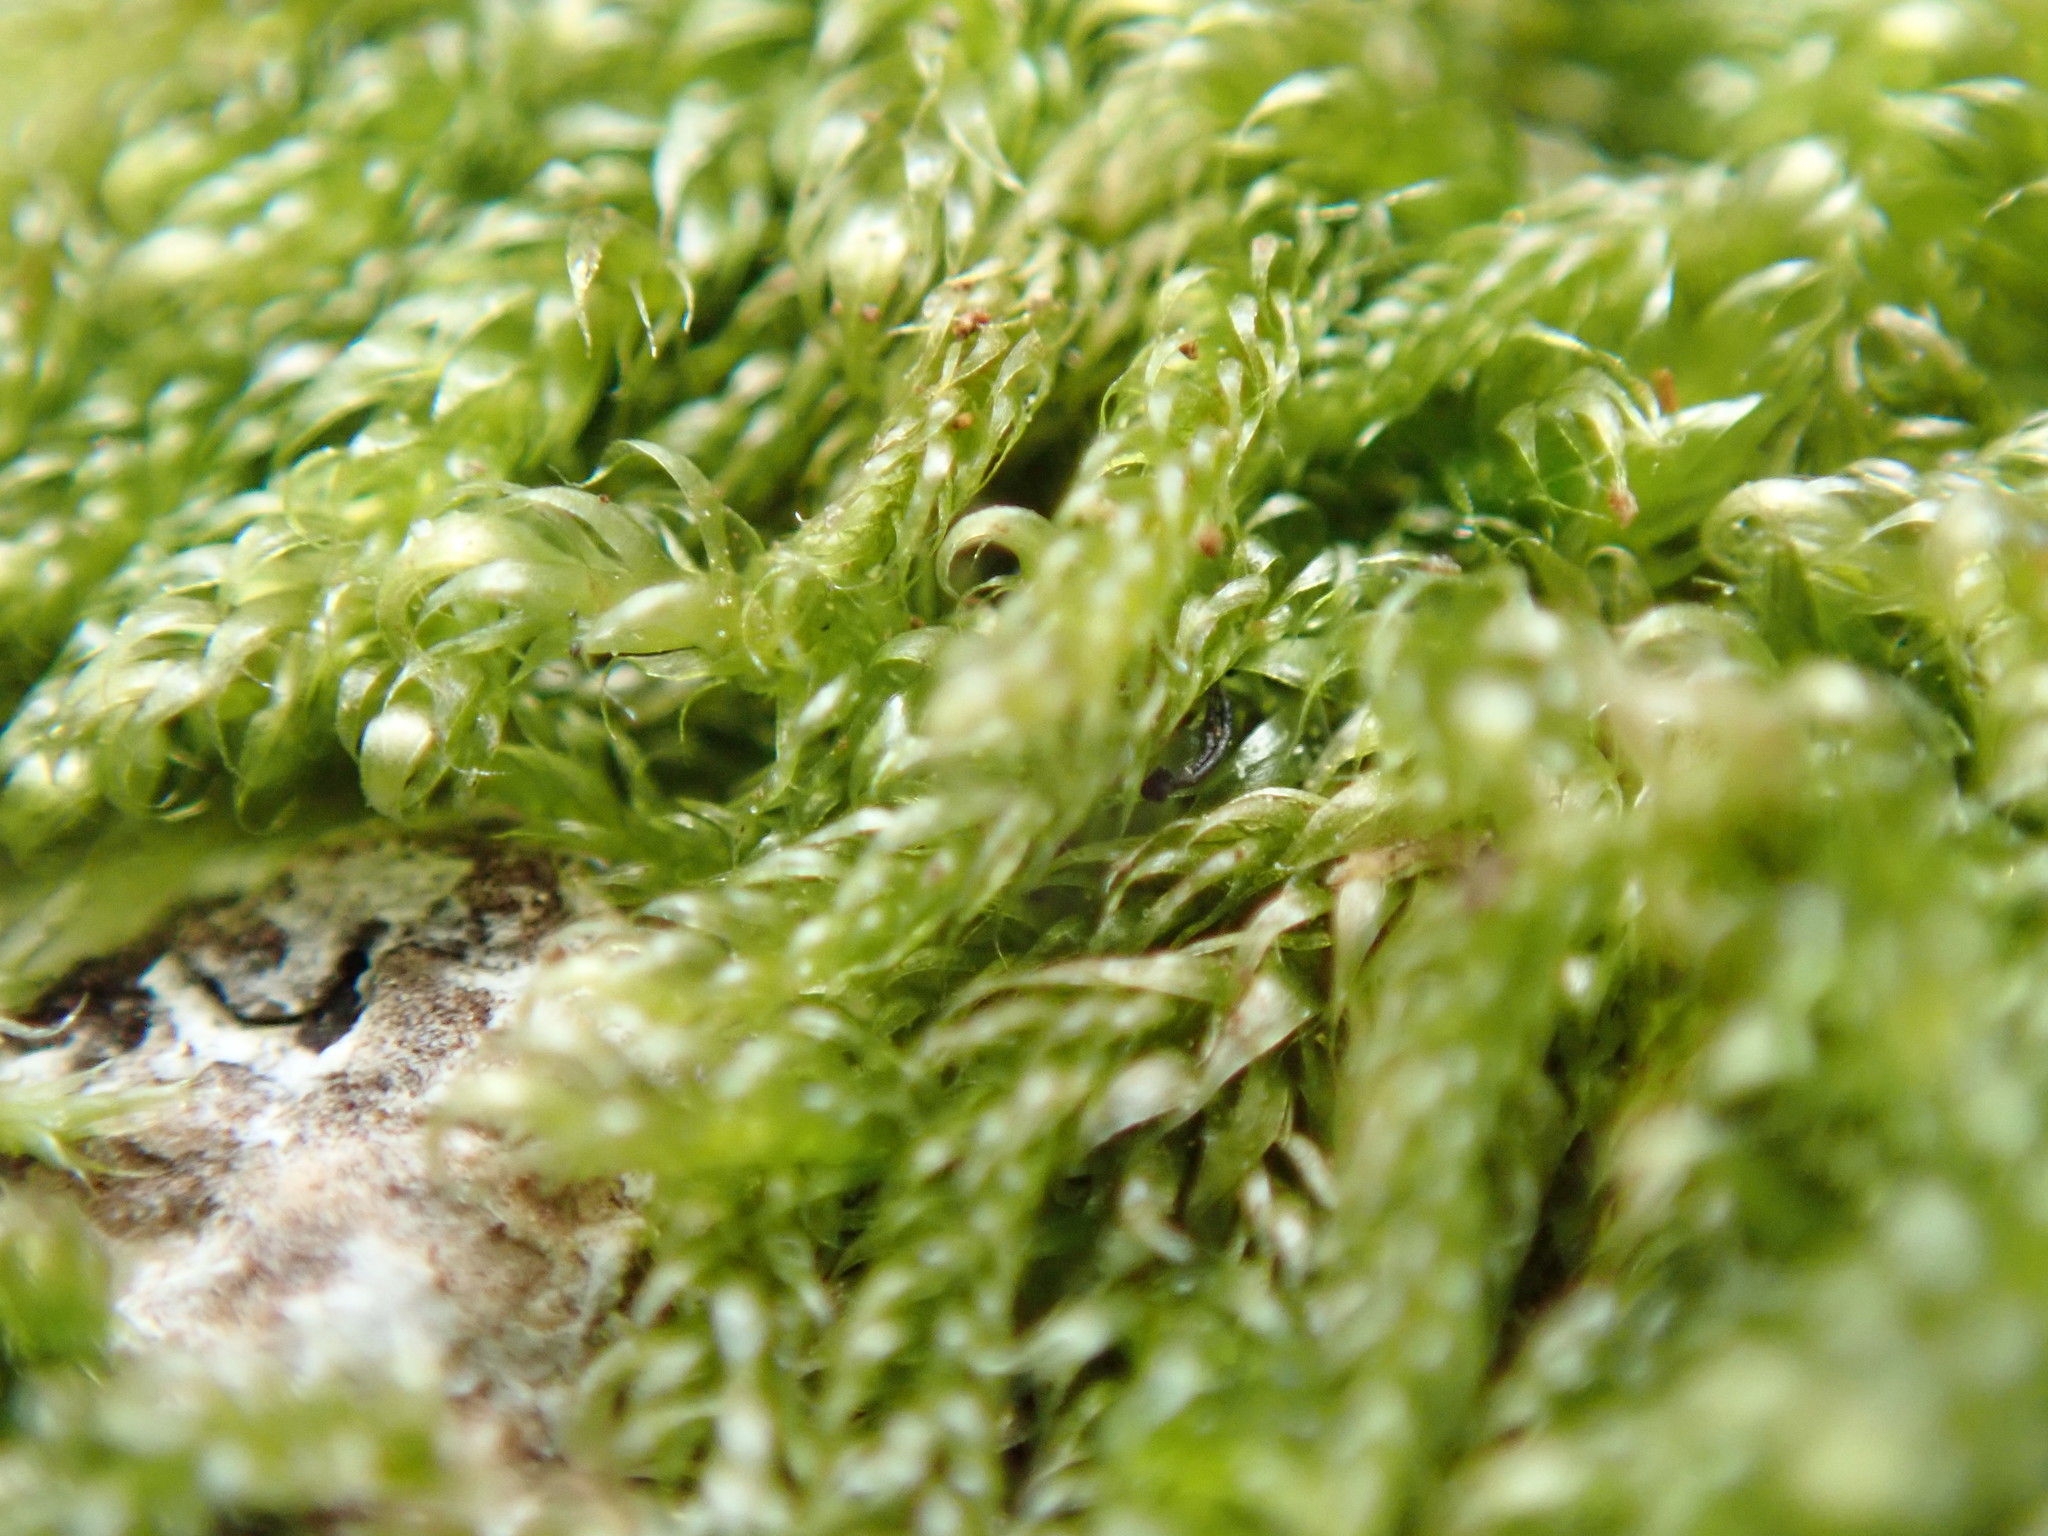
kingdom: Plantae
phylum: Bryophyta
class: Bryopsida
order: Hypnales
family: Pylaisiadelphaceae
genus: Trochophyllohypnum
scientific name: Trochophyllohypnum circinale
